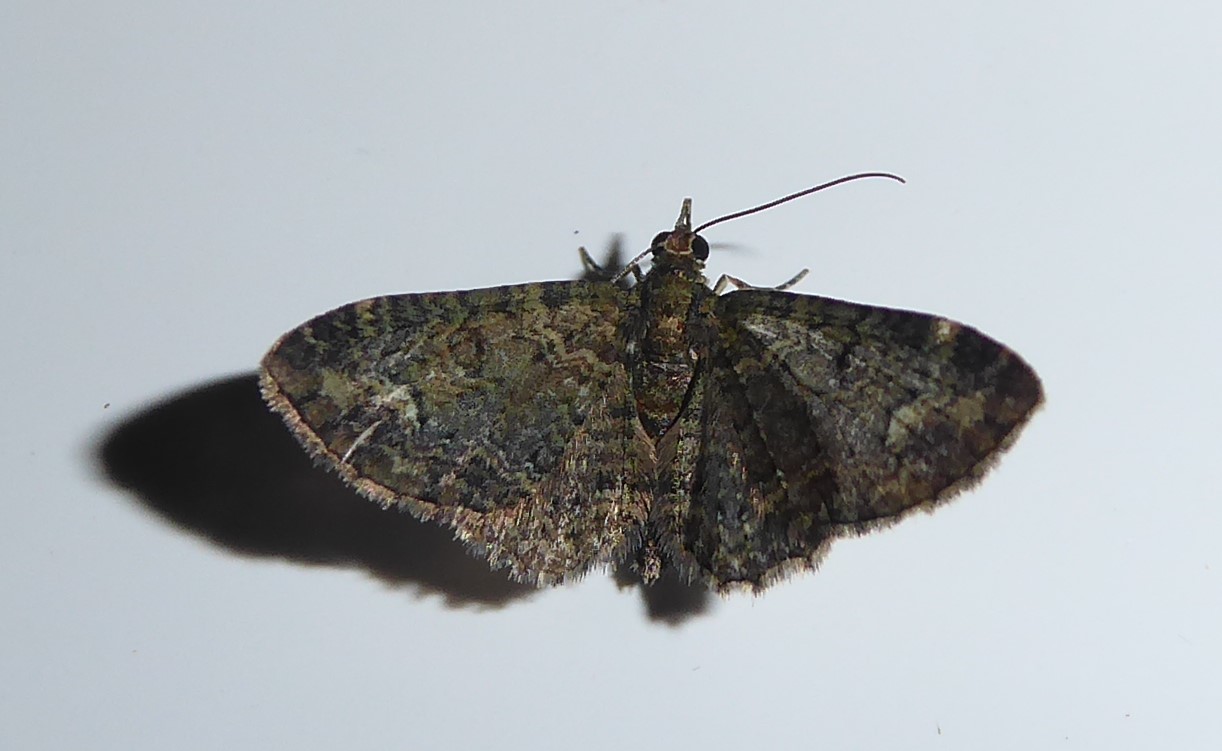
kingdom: Animalia
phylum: Arthropoda
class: Insecta
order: Lepidoptera
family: Geometridae
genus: Pasiphilodes
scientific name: Pasiphilodes testulata
